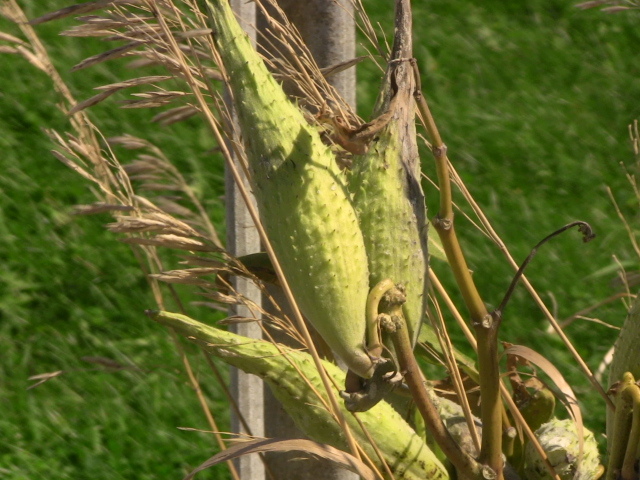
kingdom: Plantae
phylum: Tracheophyta
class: Magnoliopsida
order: Gentianales
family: Apocynaceae
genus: Asclepias
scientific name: Asclepias syriaca
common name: Common milkweed
